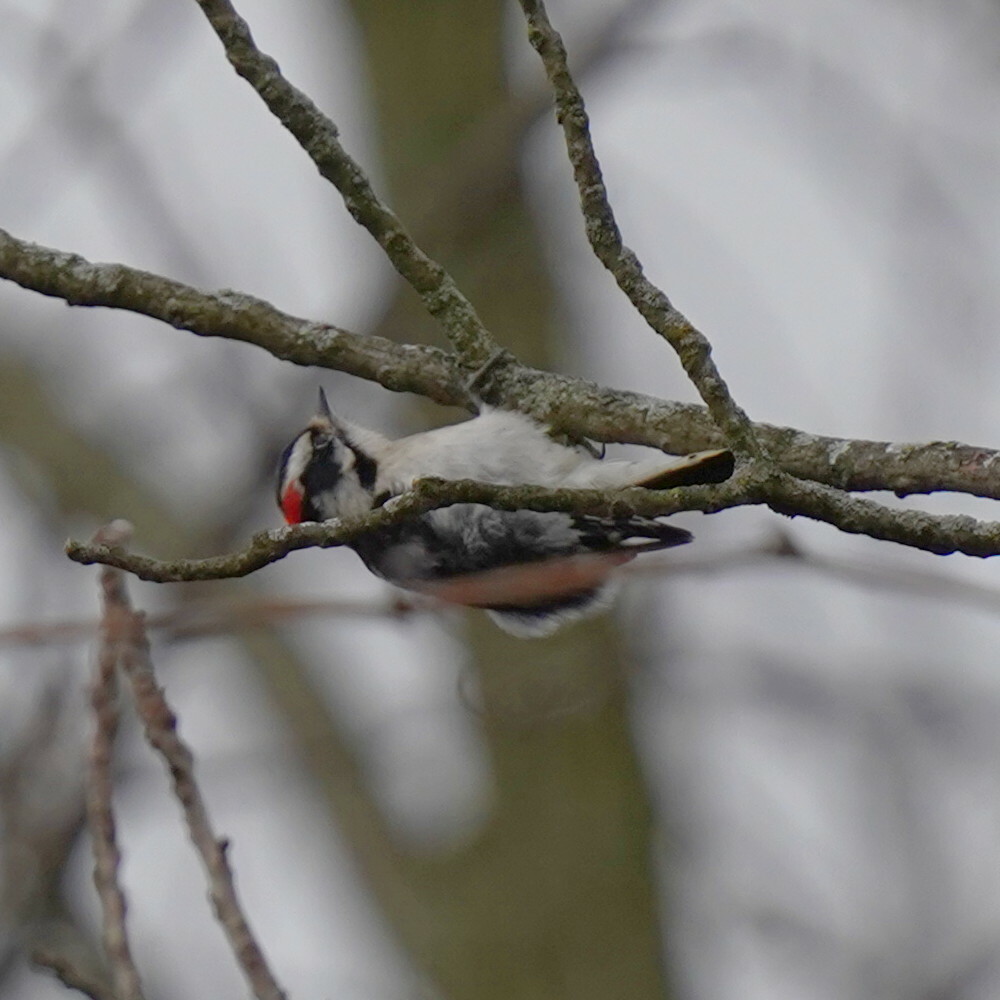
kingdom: Animalia
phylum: Chordata
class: Aves
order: Piciformes
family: Picidae
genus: Dryobates
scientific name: Dryobates pubescens
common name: Downy woodpecker
